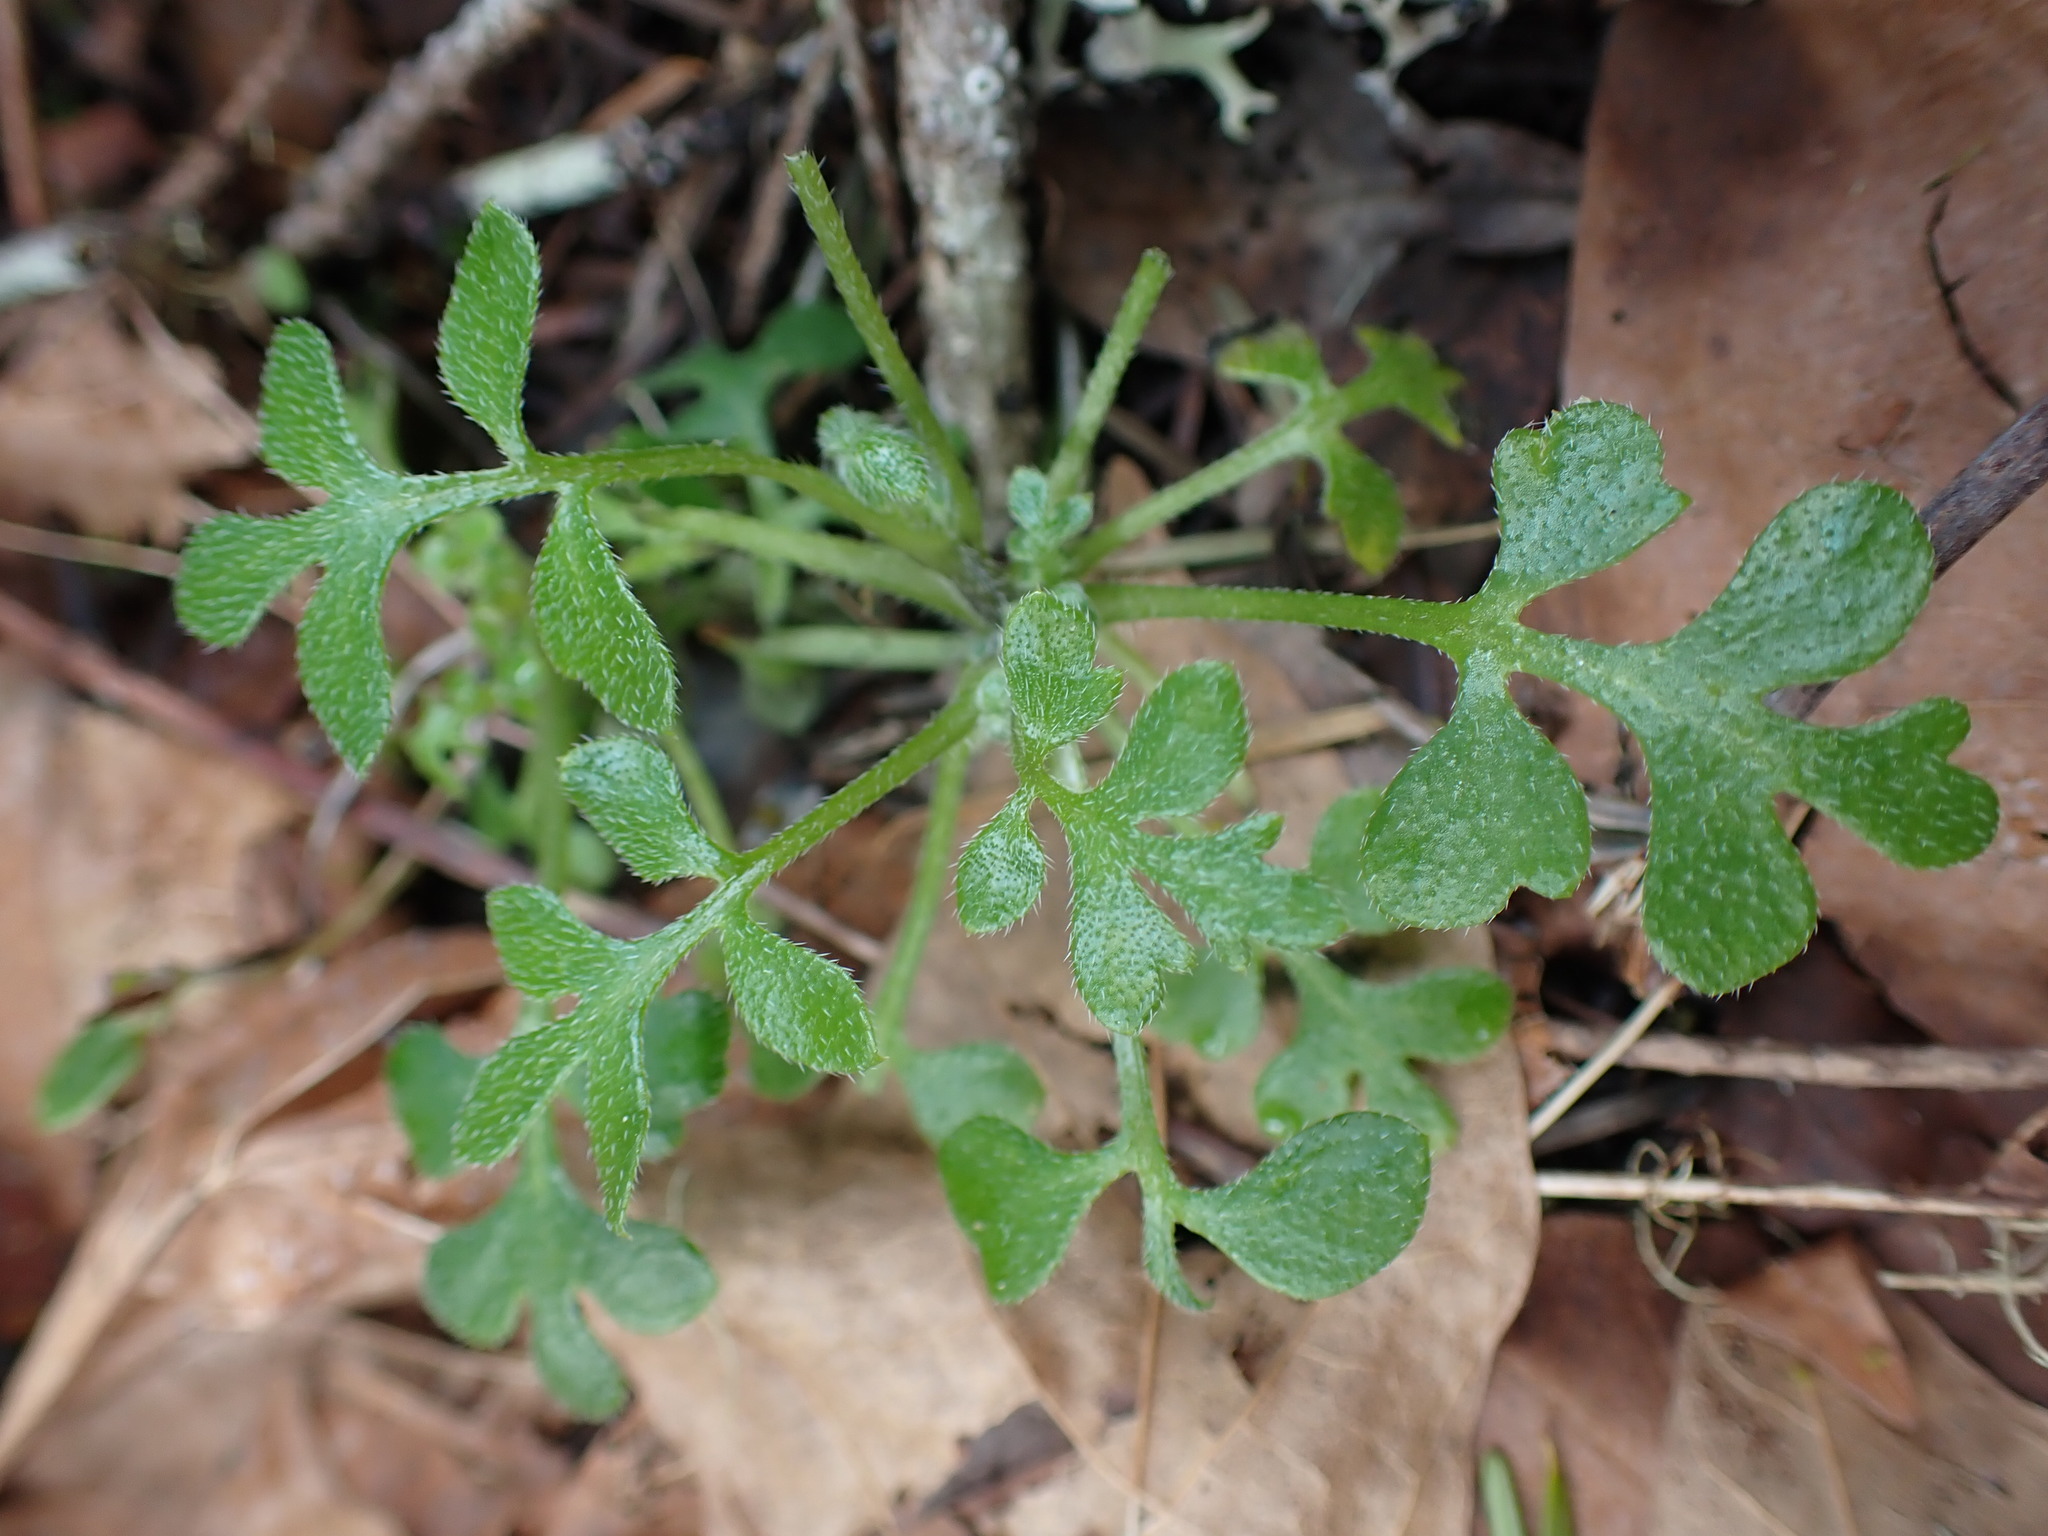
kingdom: Plantae
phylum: Tracheophyta
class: Magnoliopsida
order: Boraginales
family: Hydrophyllaceae
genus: Nemophila
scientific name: Nemophila parviflora
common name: Small-flowered baby-blue-eyes
